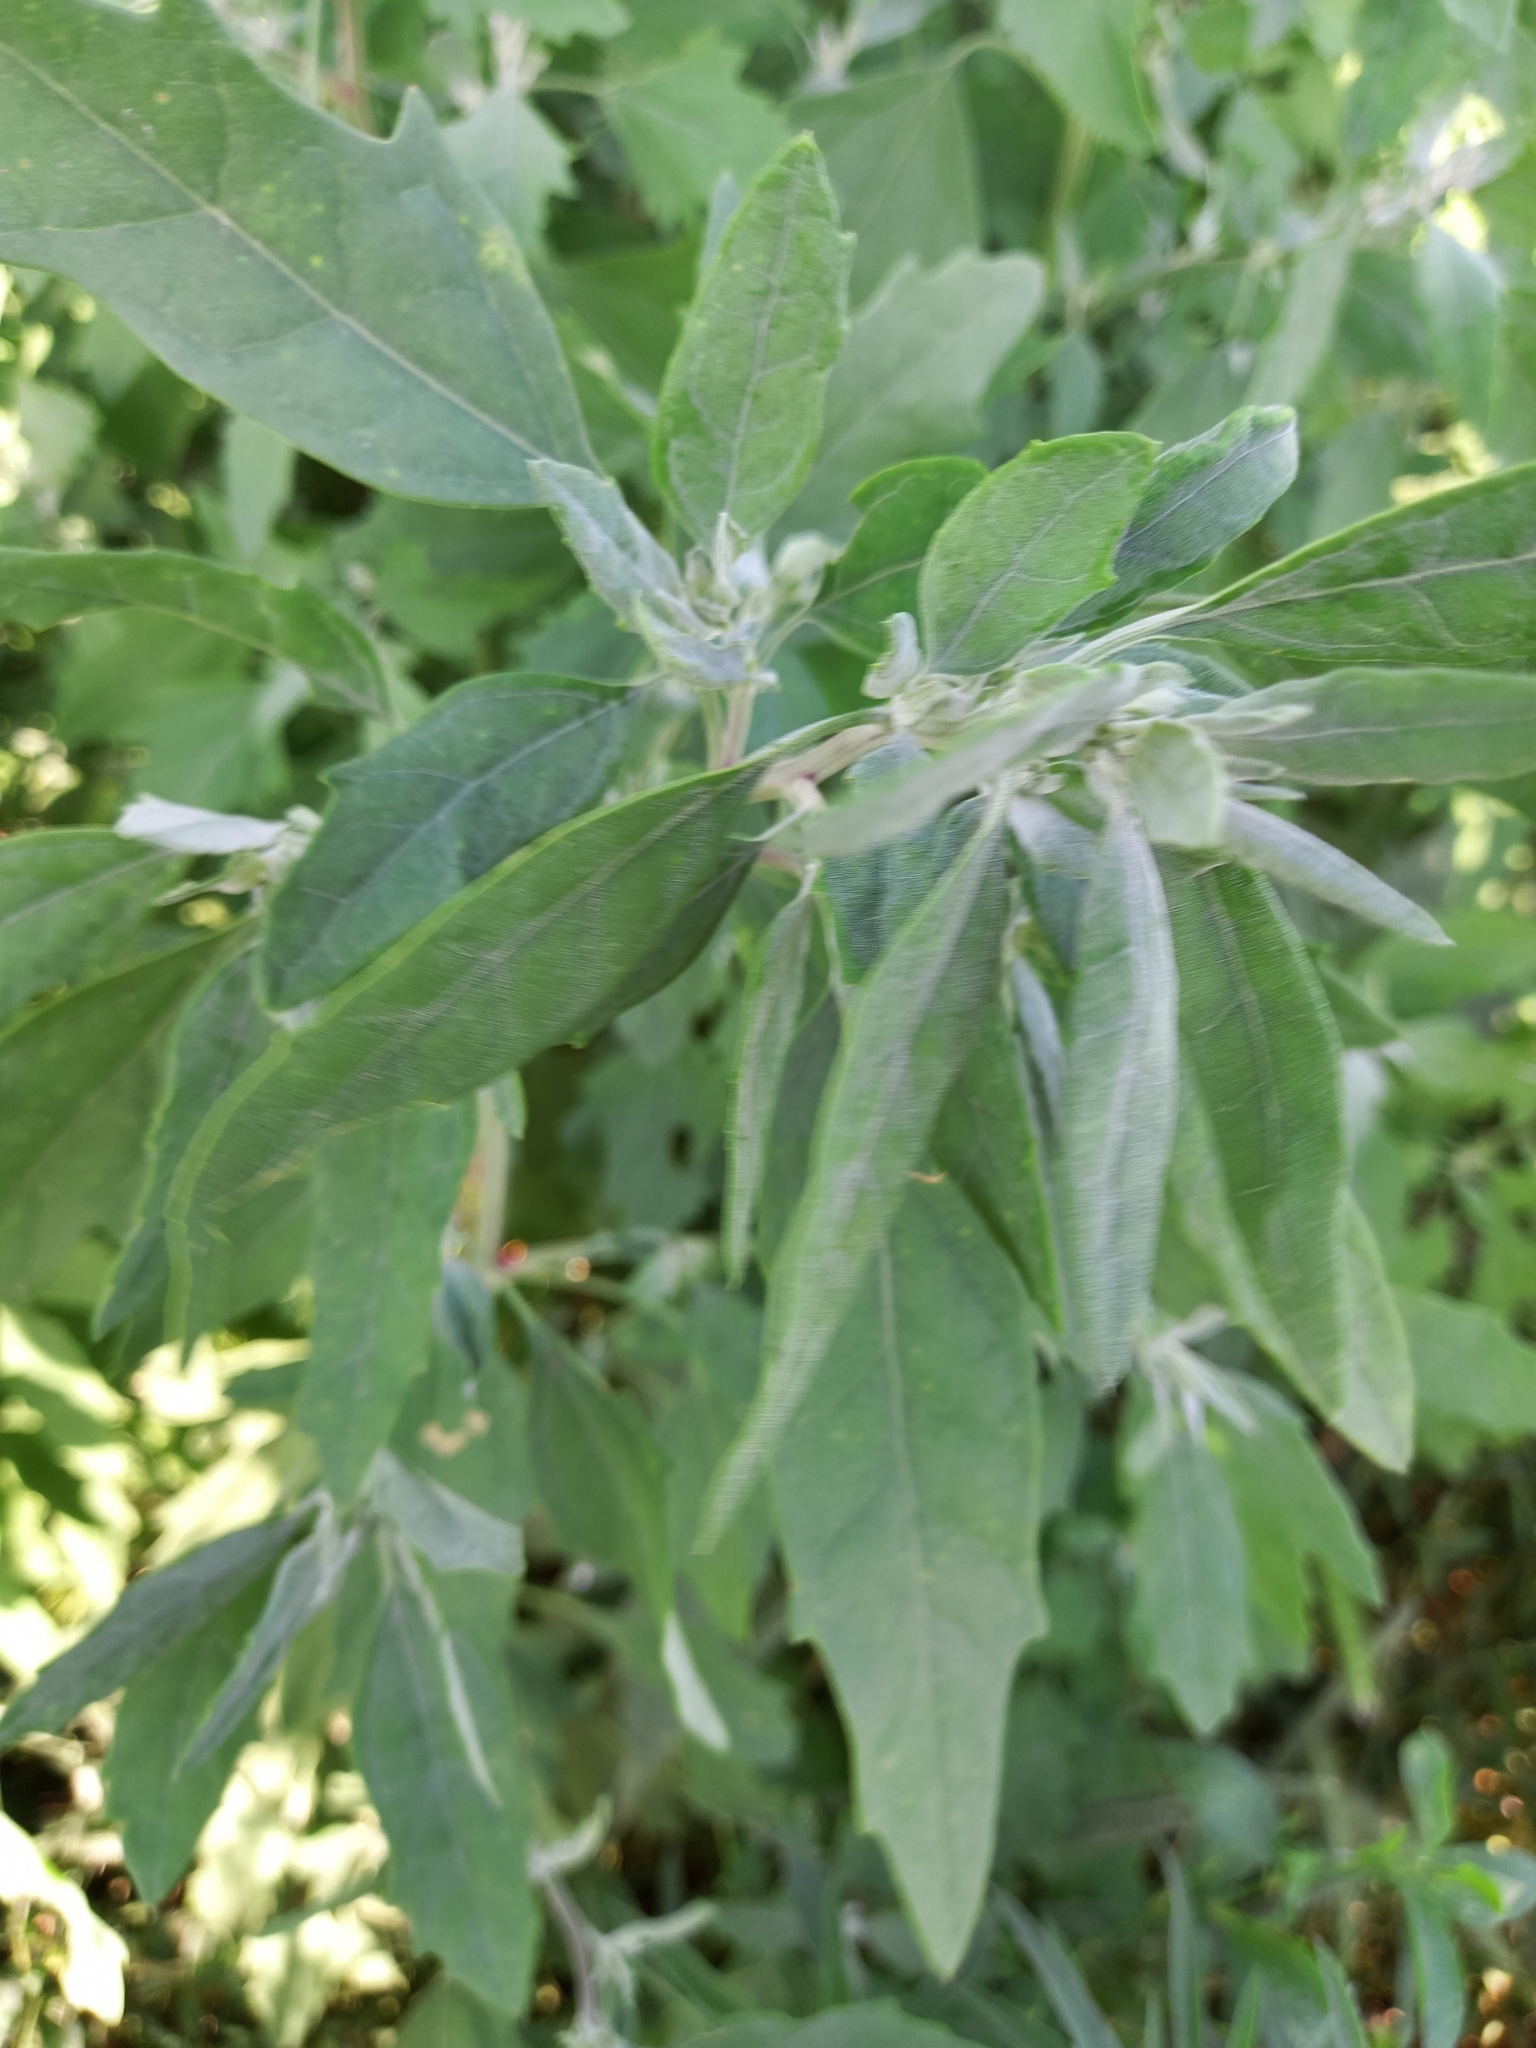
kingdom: Plantae
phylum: Tracheophyta
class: Magnoliopsida
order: Caryophyllales
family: Amaranthaceae
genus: Chenopodium
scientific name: Chenopodium album
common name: Fat-hen
